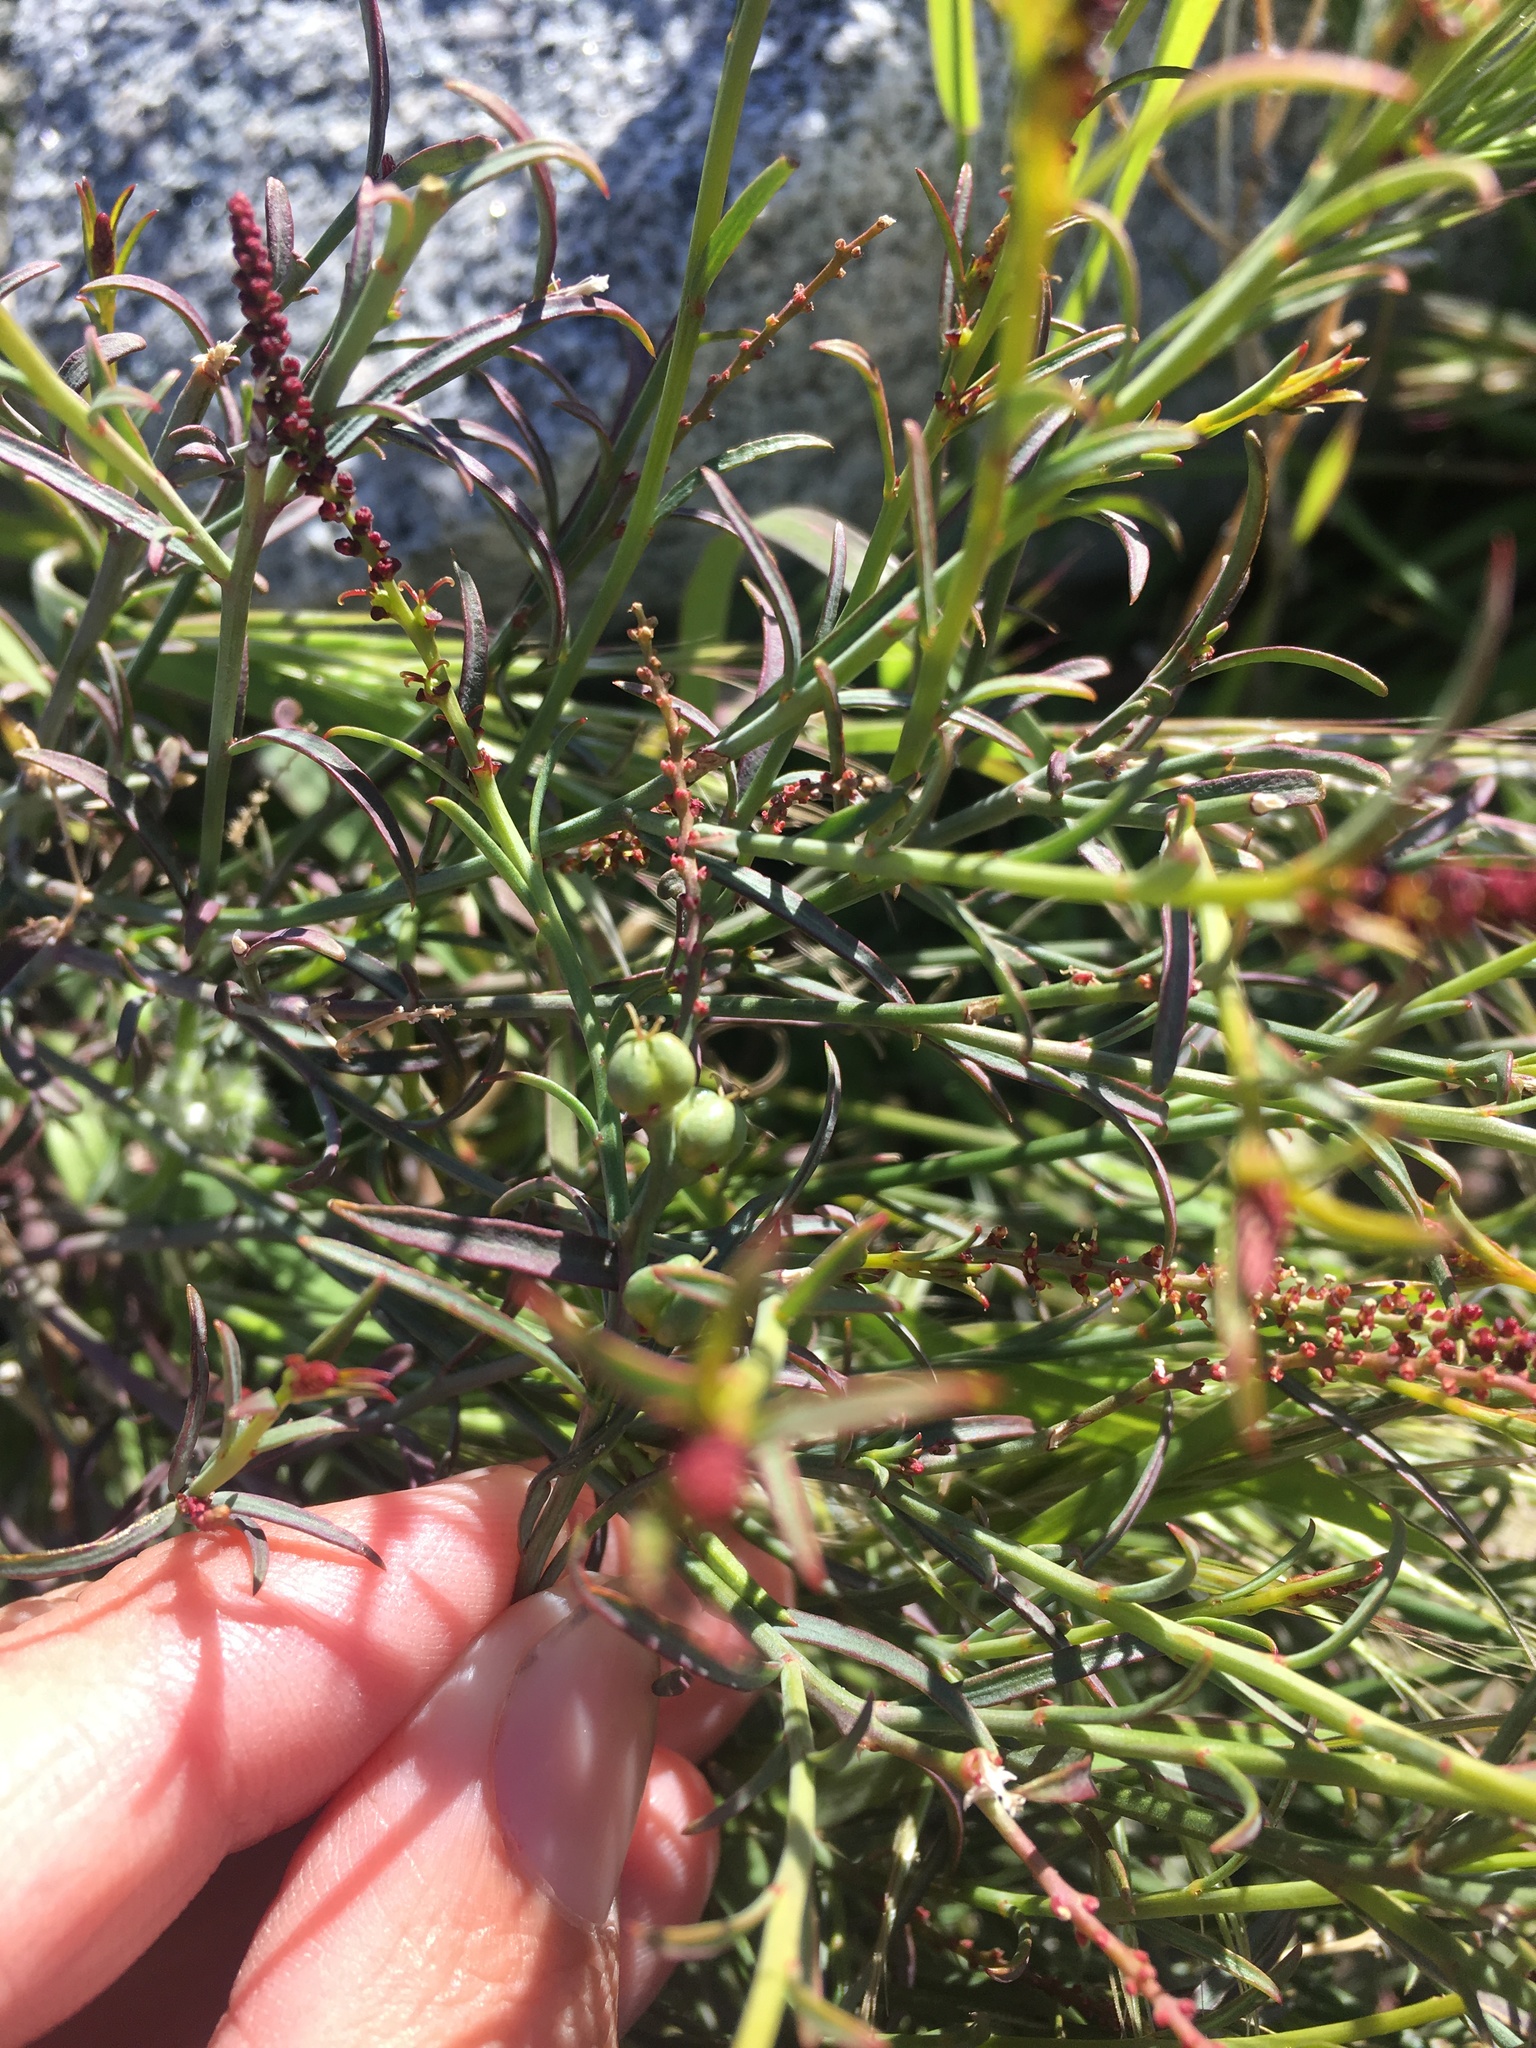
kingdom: Plantae
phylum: Tracheophyta
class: Magnoliopsida
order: Malpighiales
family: Euphorbiaceae
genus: Stillingia
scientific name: Stillingia linearifolia
